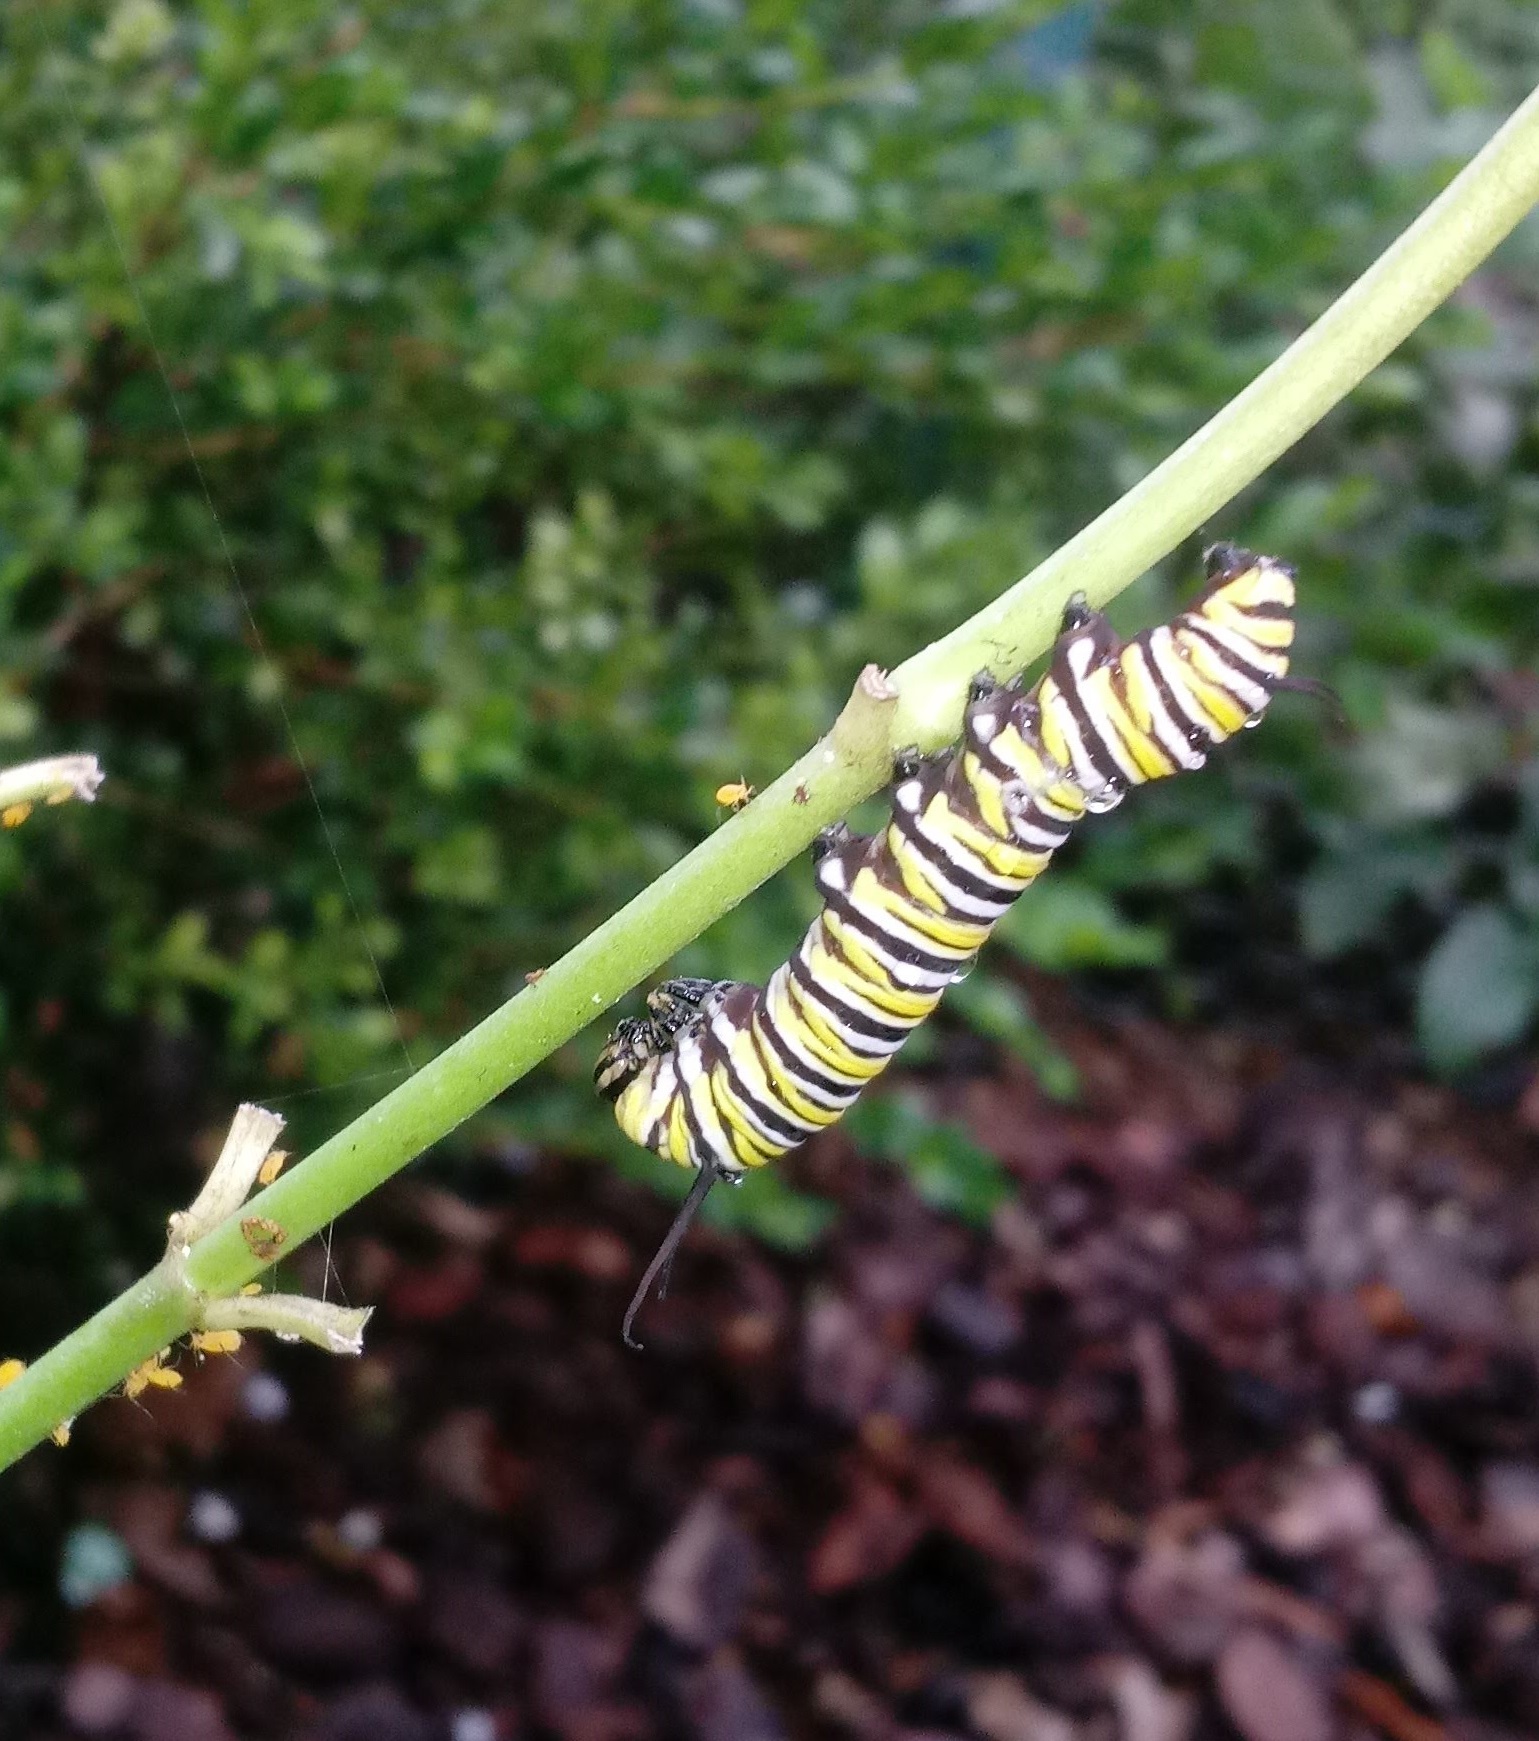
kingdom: Animalia
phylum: Arthropoda
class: Insecta
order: Lepidoptera
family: Nymphalidae
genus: Danaus
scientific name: Danaus plexippus
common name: Monarch
